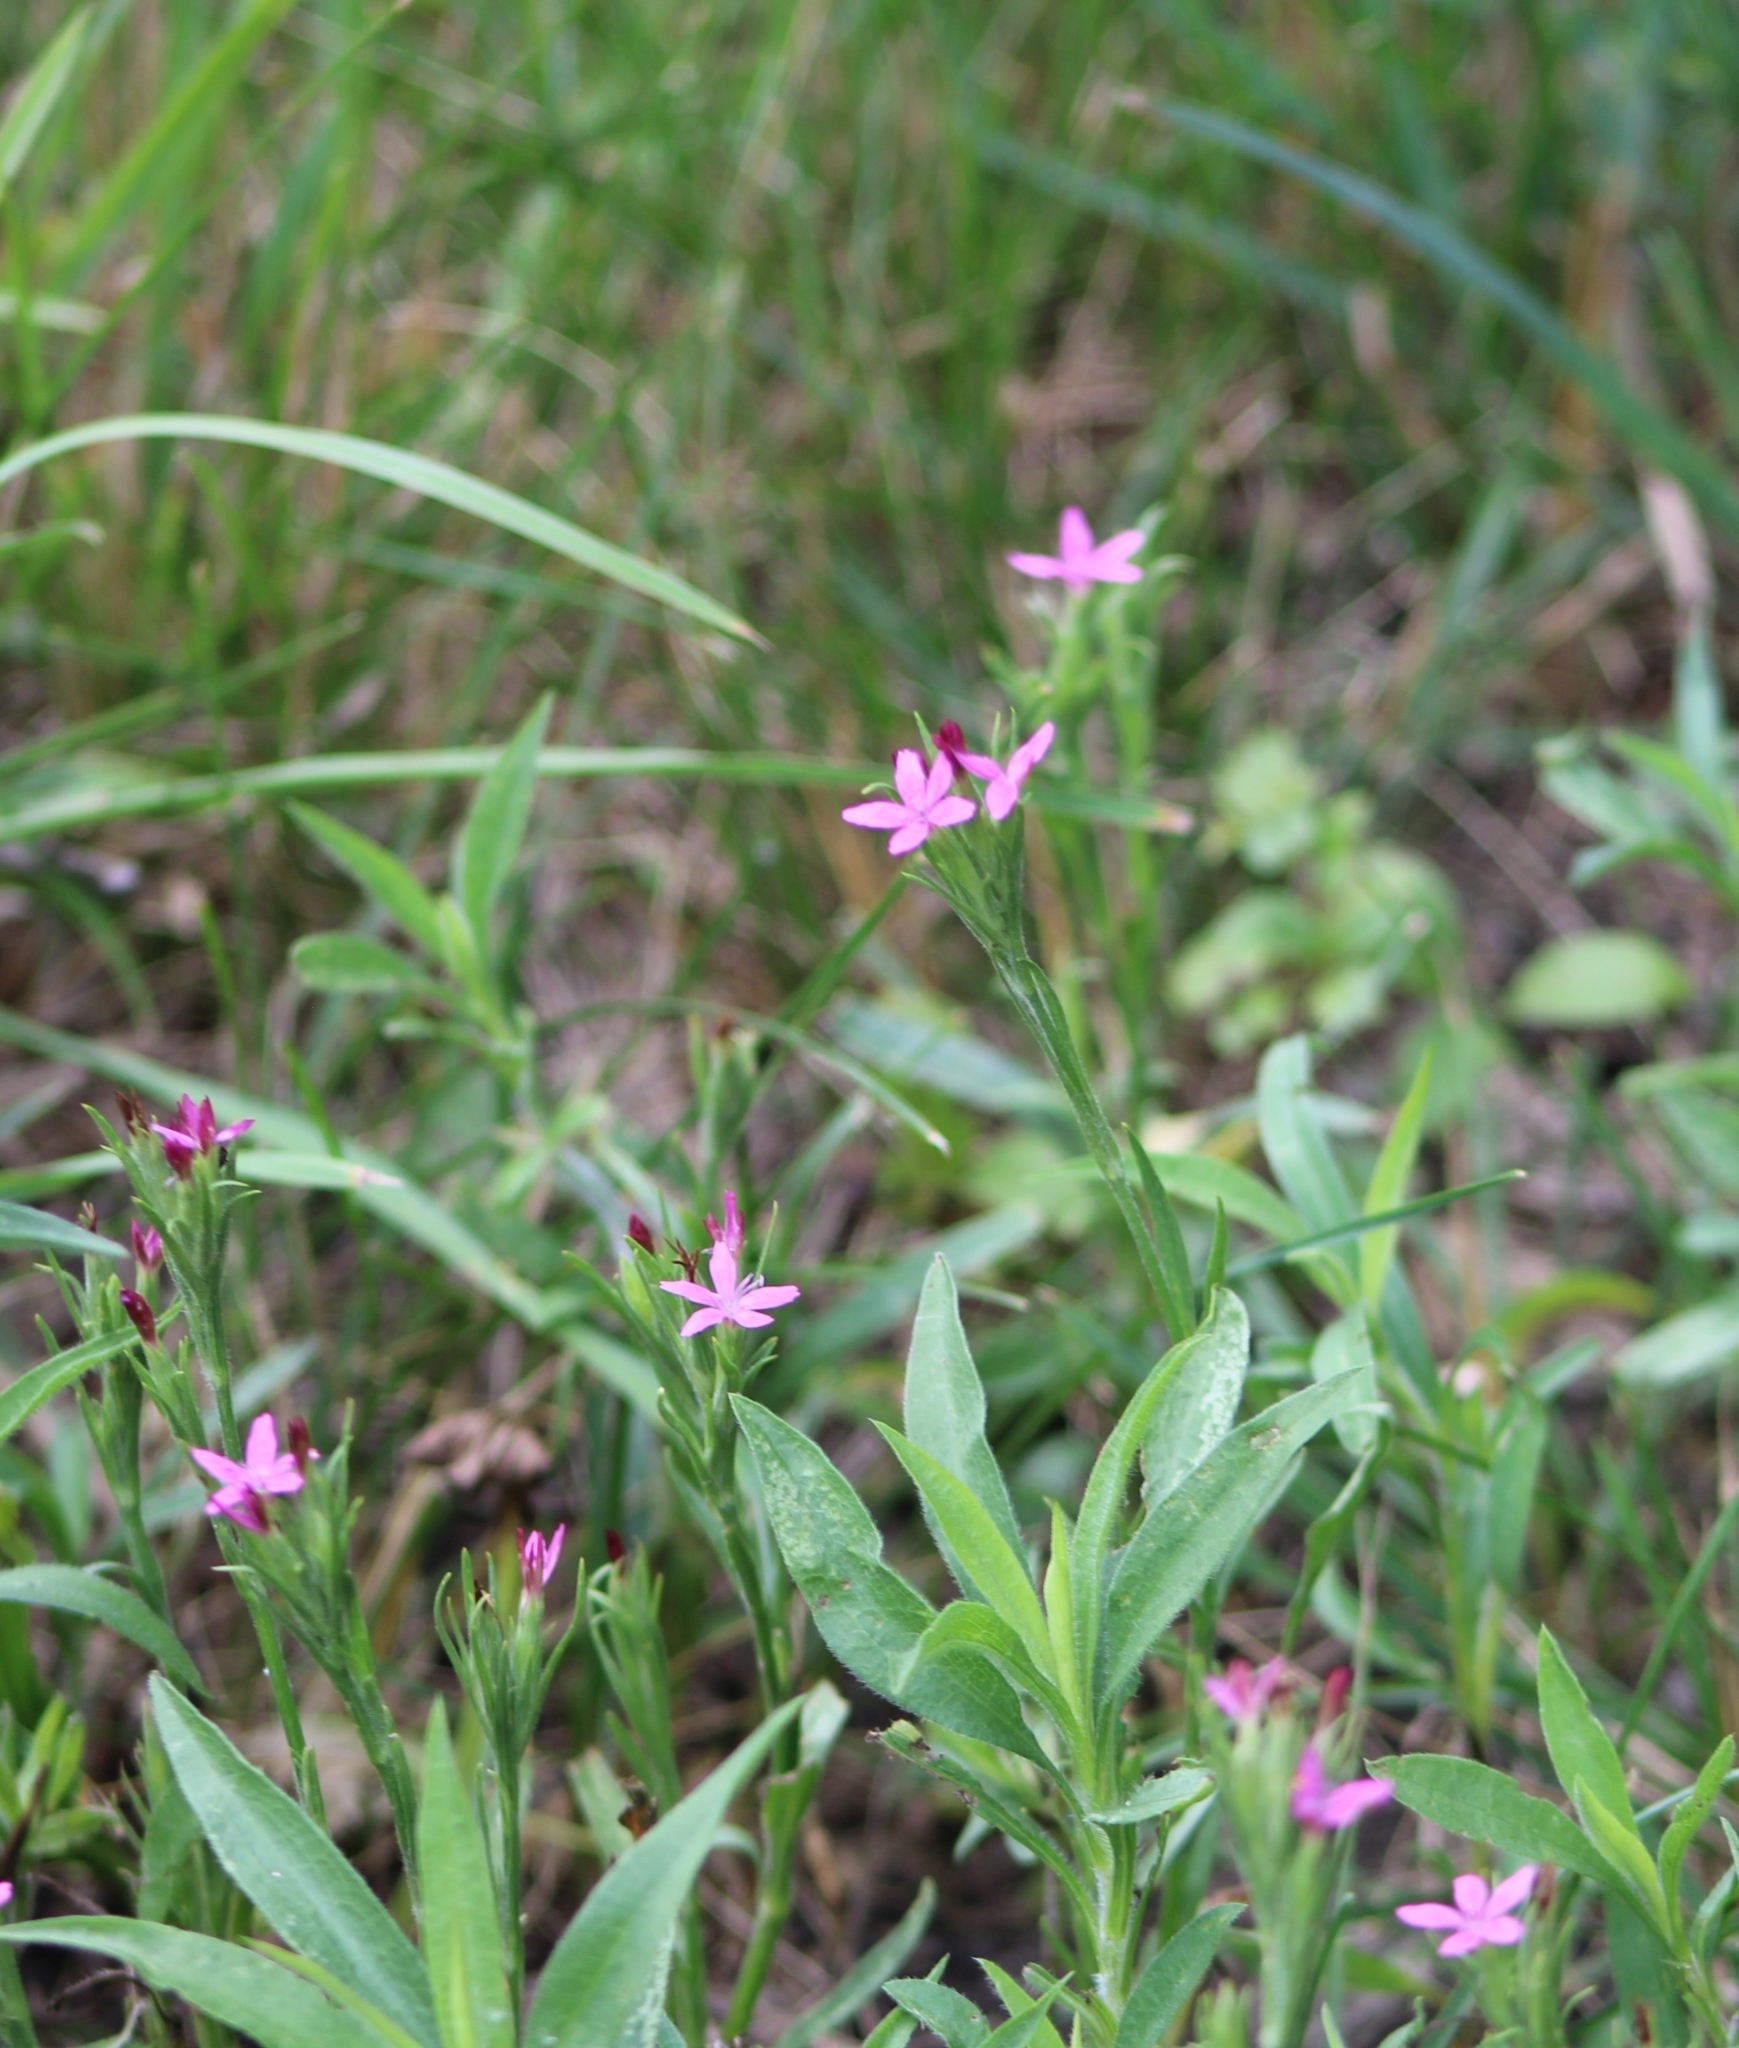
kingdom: Plantae
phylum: Tracheophyta
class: Magnoliopsida
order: Caryophyllales
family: Caryophyllaceae
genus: Dianthus
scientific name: Dianthus armeria
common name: Deptford pink
